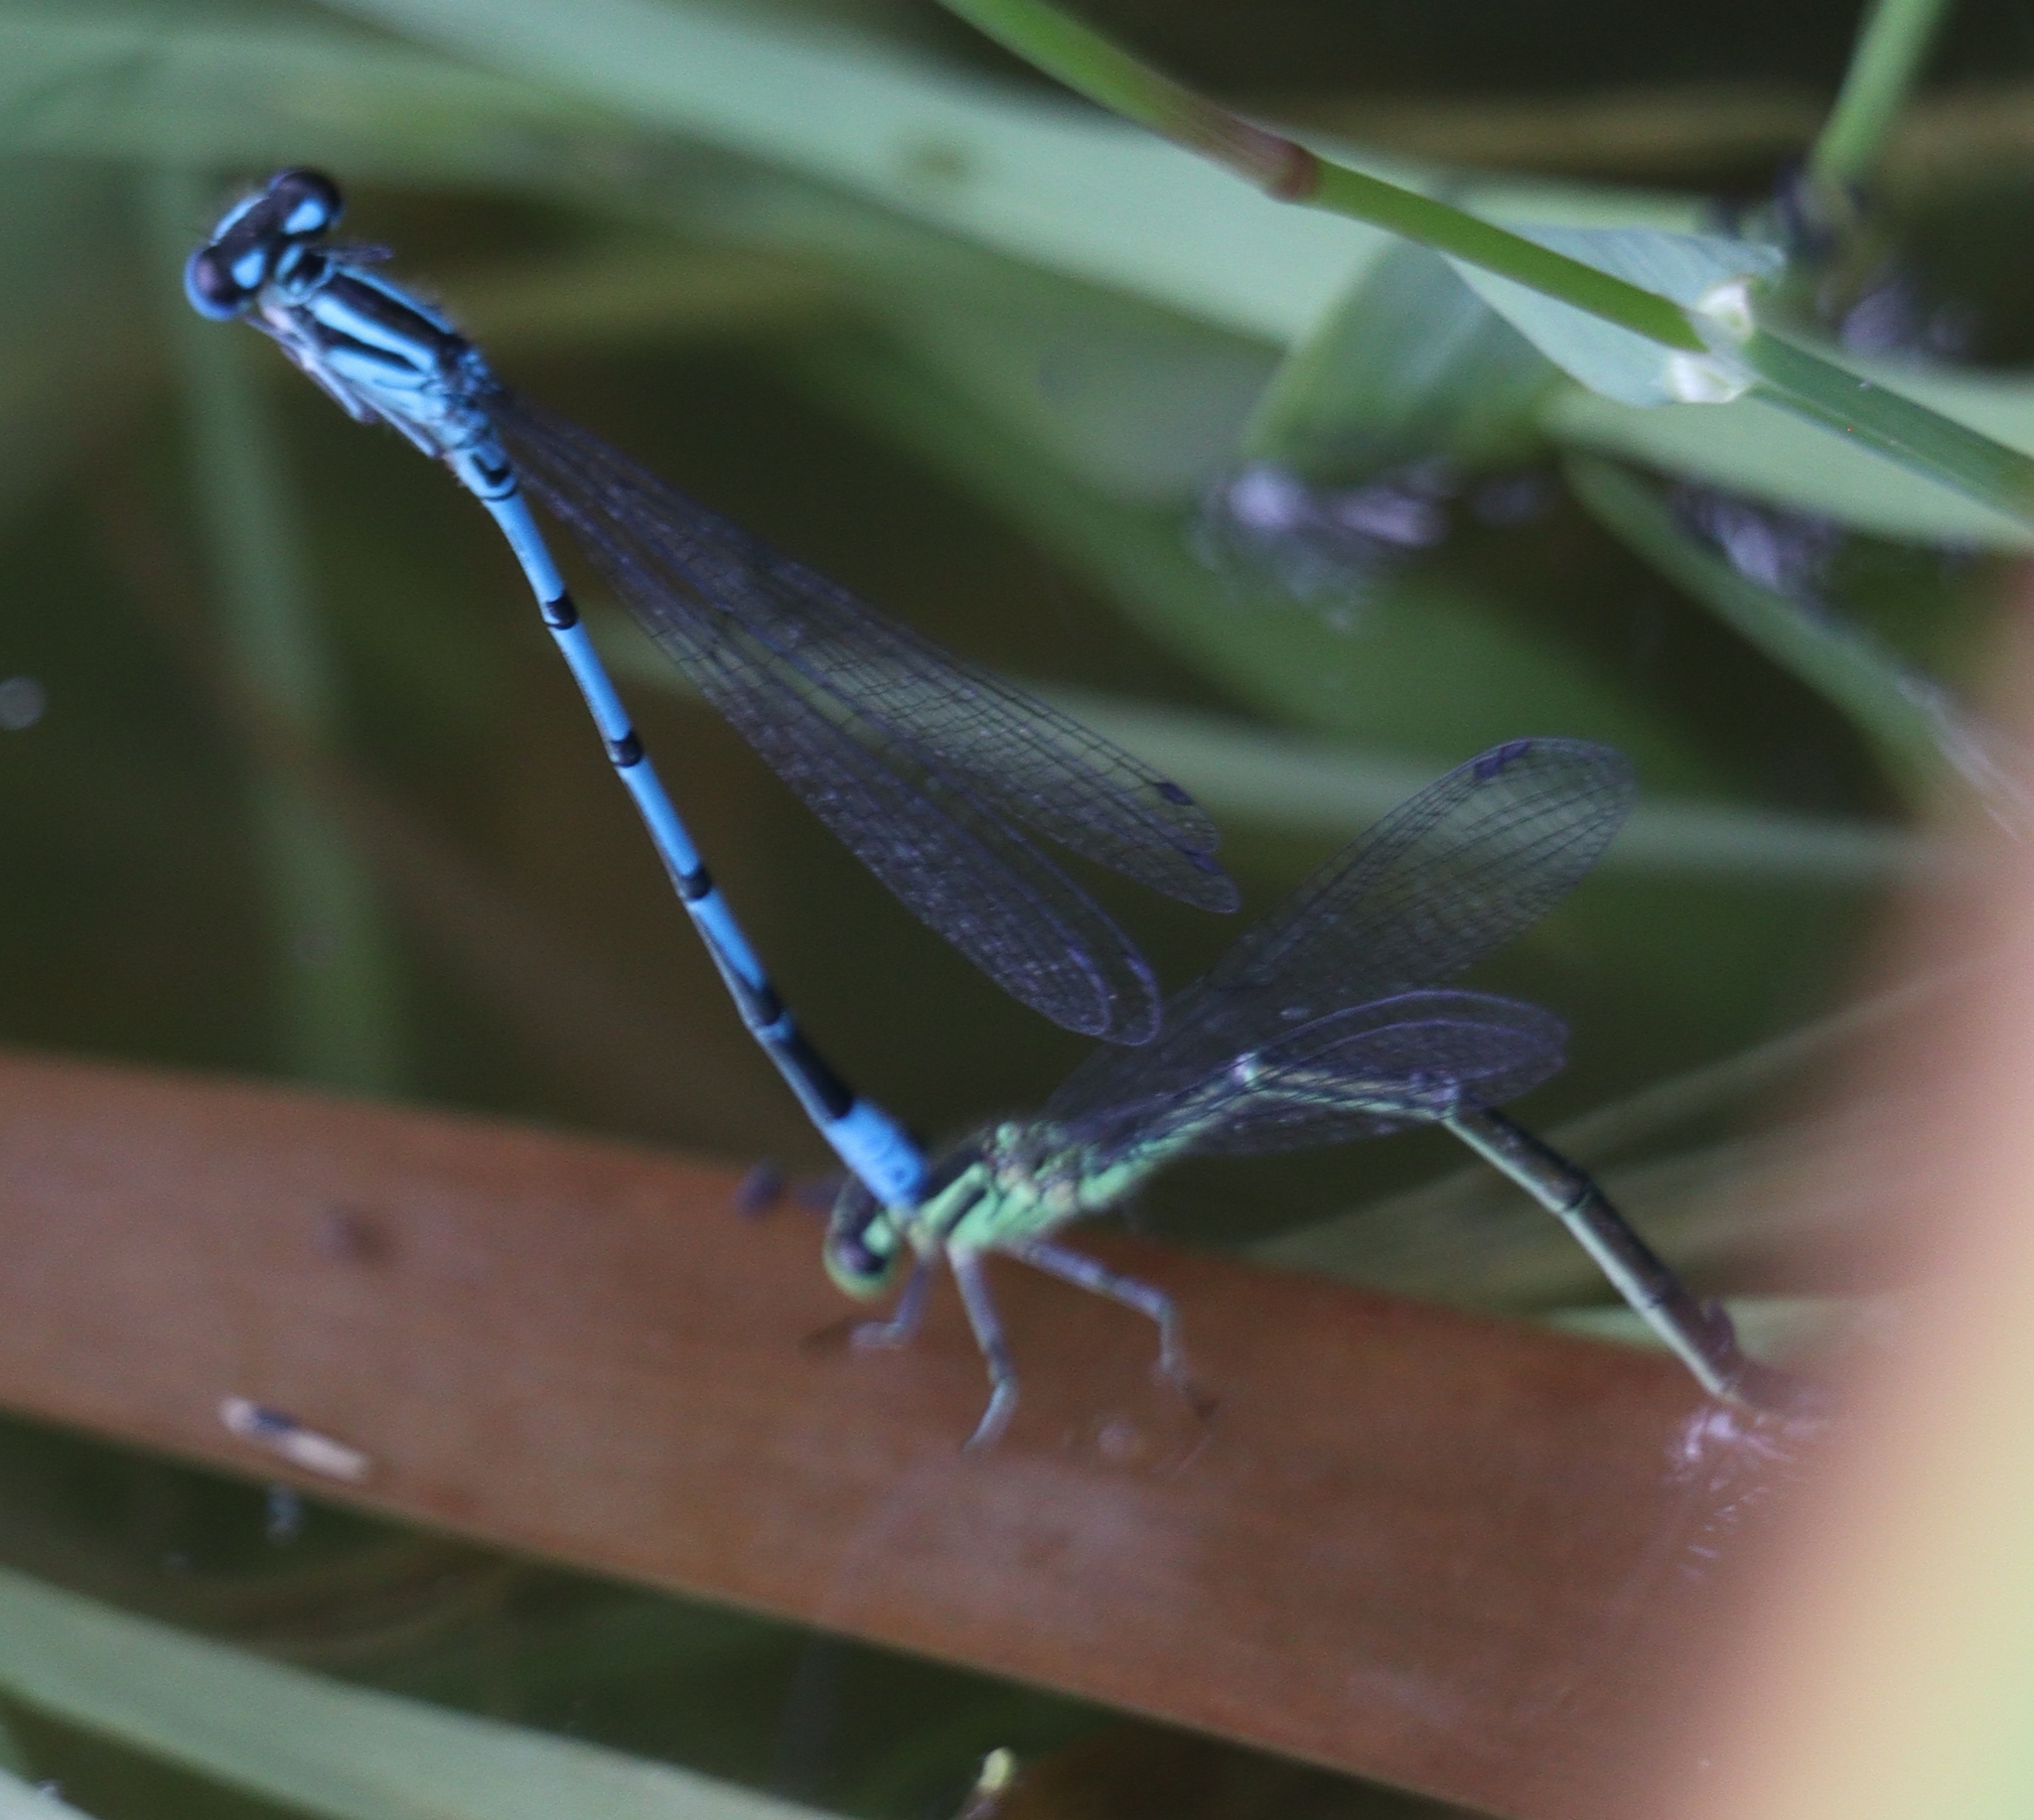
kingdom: Animalia
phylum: Arthropoda
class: Insecta
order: Odonata
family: Coenagrionidae
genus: Coenagrion
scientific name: Coenagrion puella
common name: Azure damselfly
